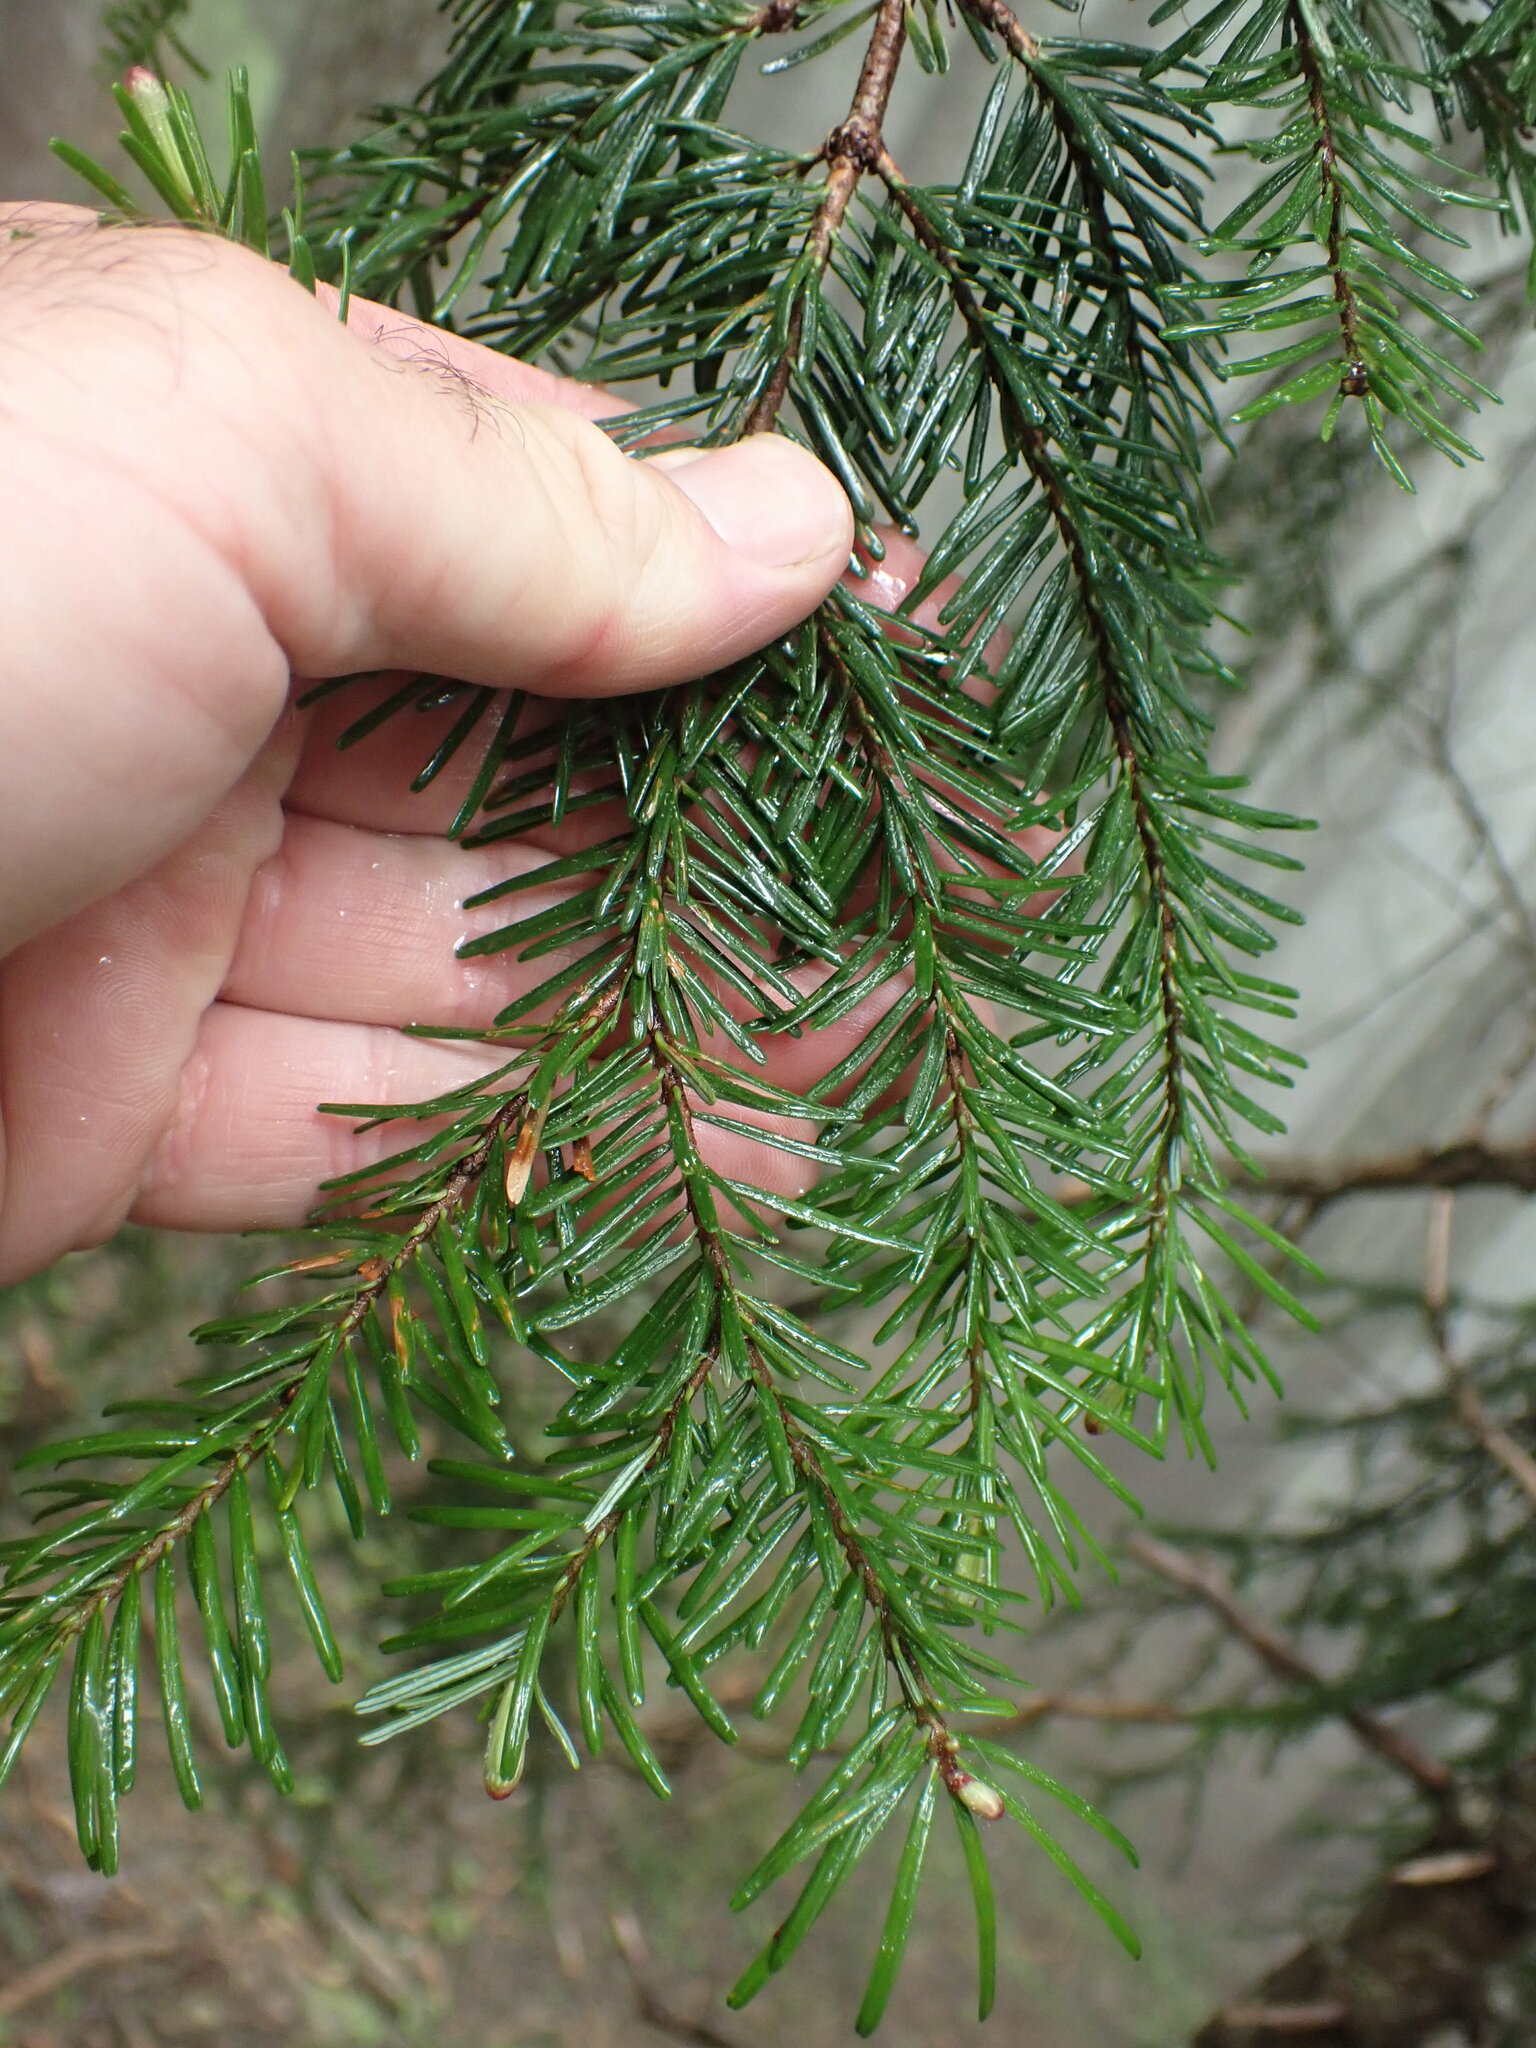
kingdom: Plantae
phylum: Tracheophyta
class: Pinopsida
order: Pinales
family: Pinaceae
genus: Abies
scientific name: Abies amabilis
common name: Pacific silver fir
